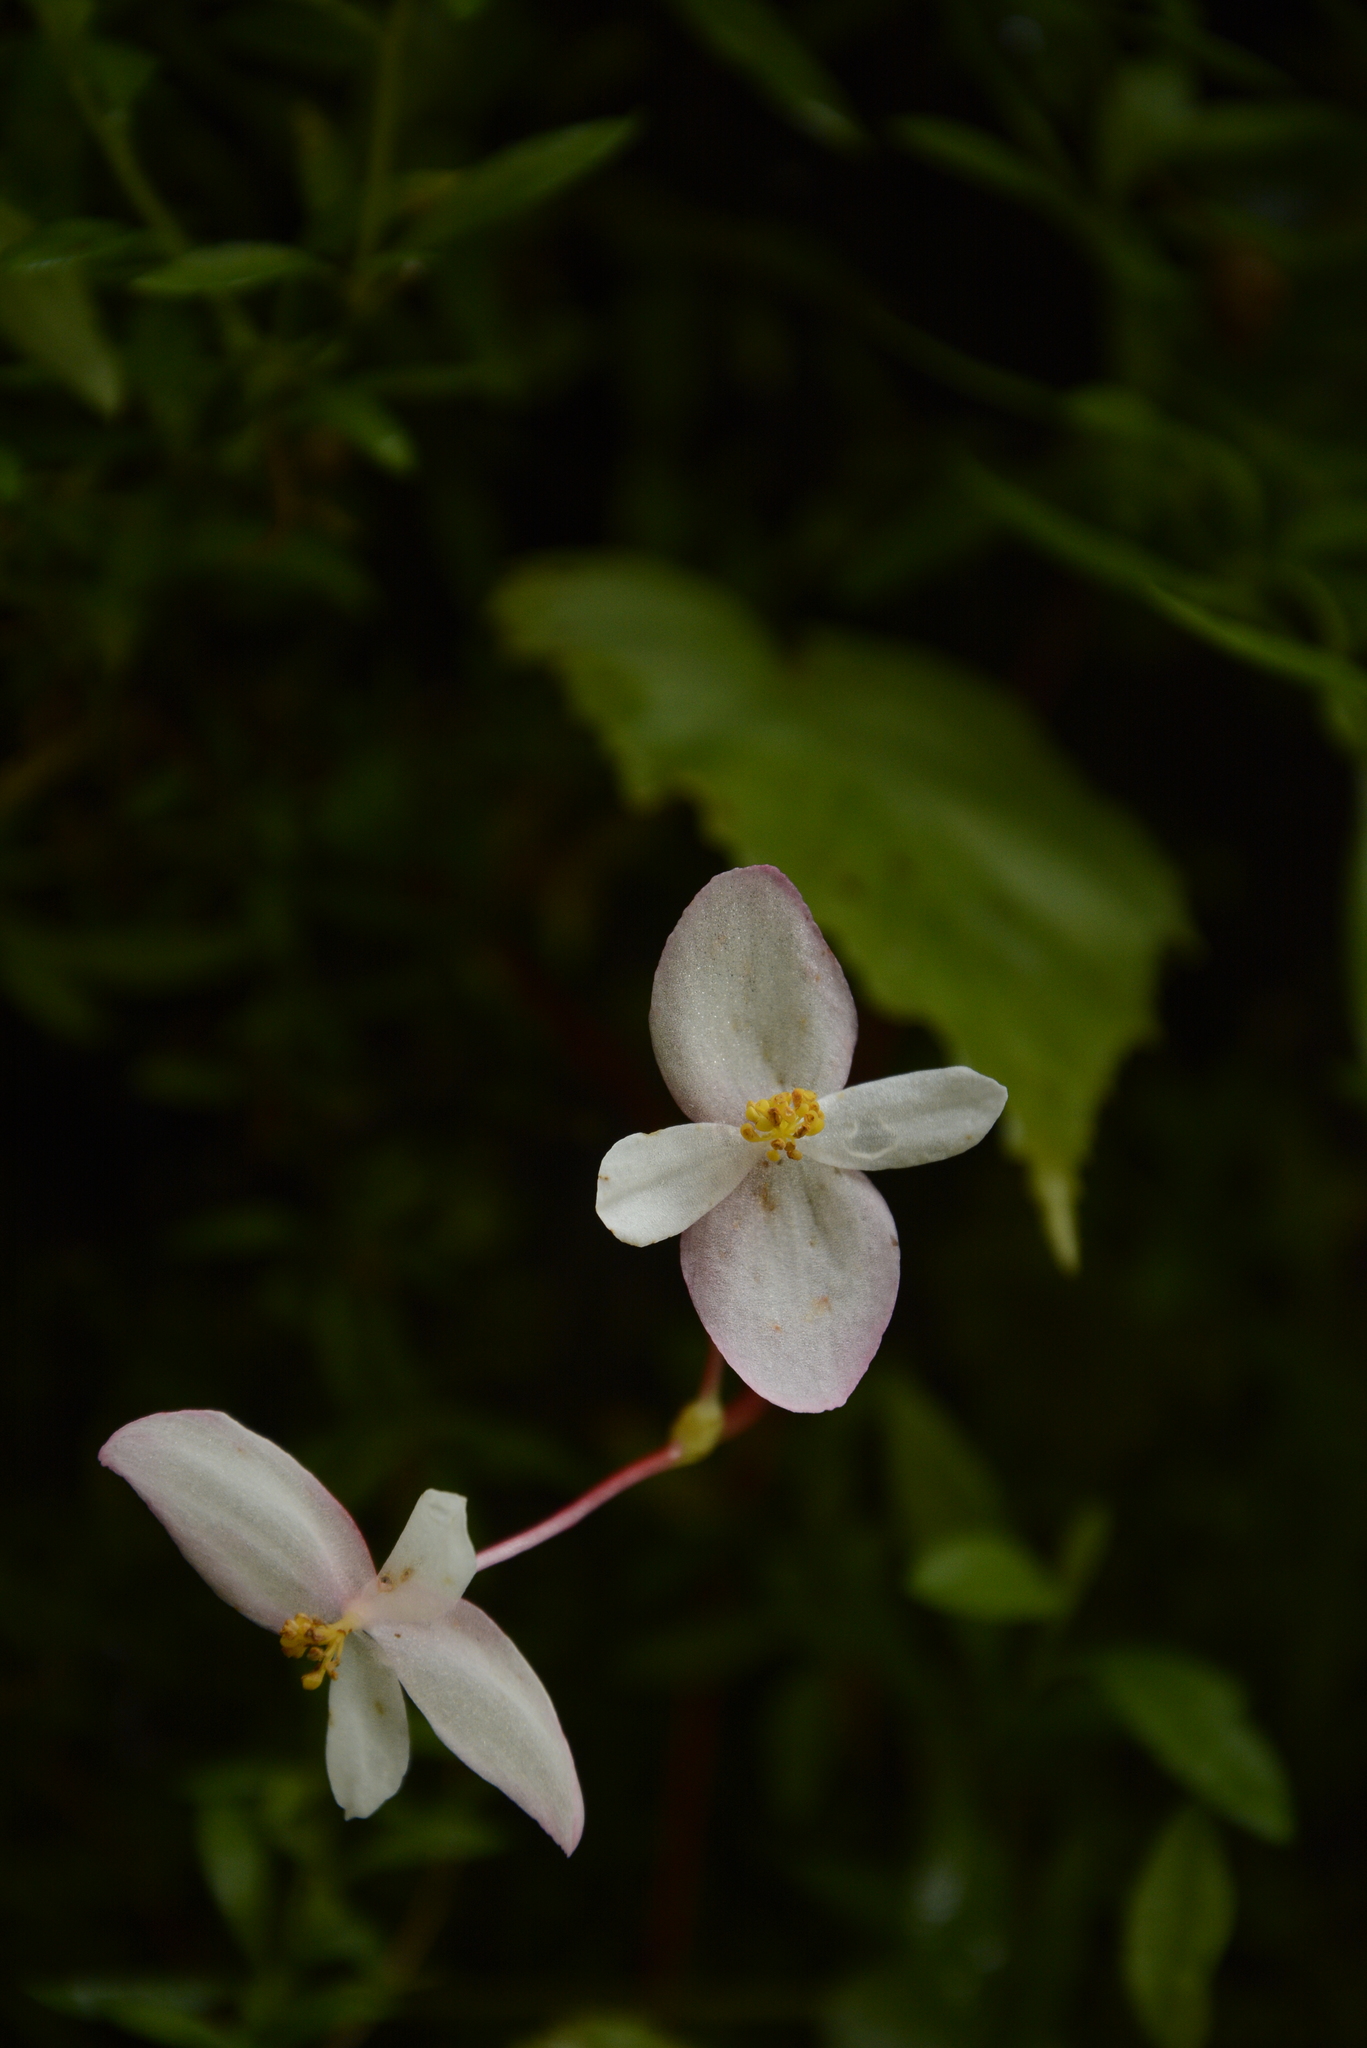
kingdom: Plantae
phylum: Tracheophyta
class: Magnoliopsida
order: Cucurbitales
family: Begoniaceae
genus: Begonia
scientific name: Begonia dioica
